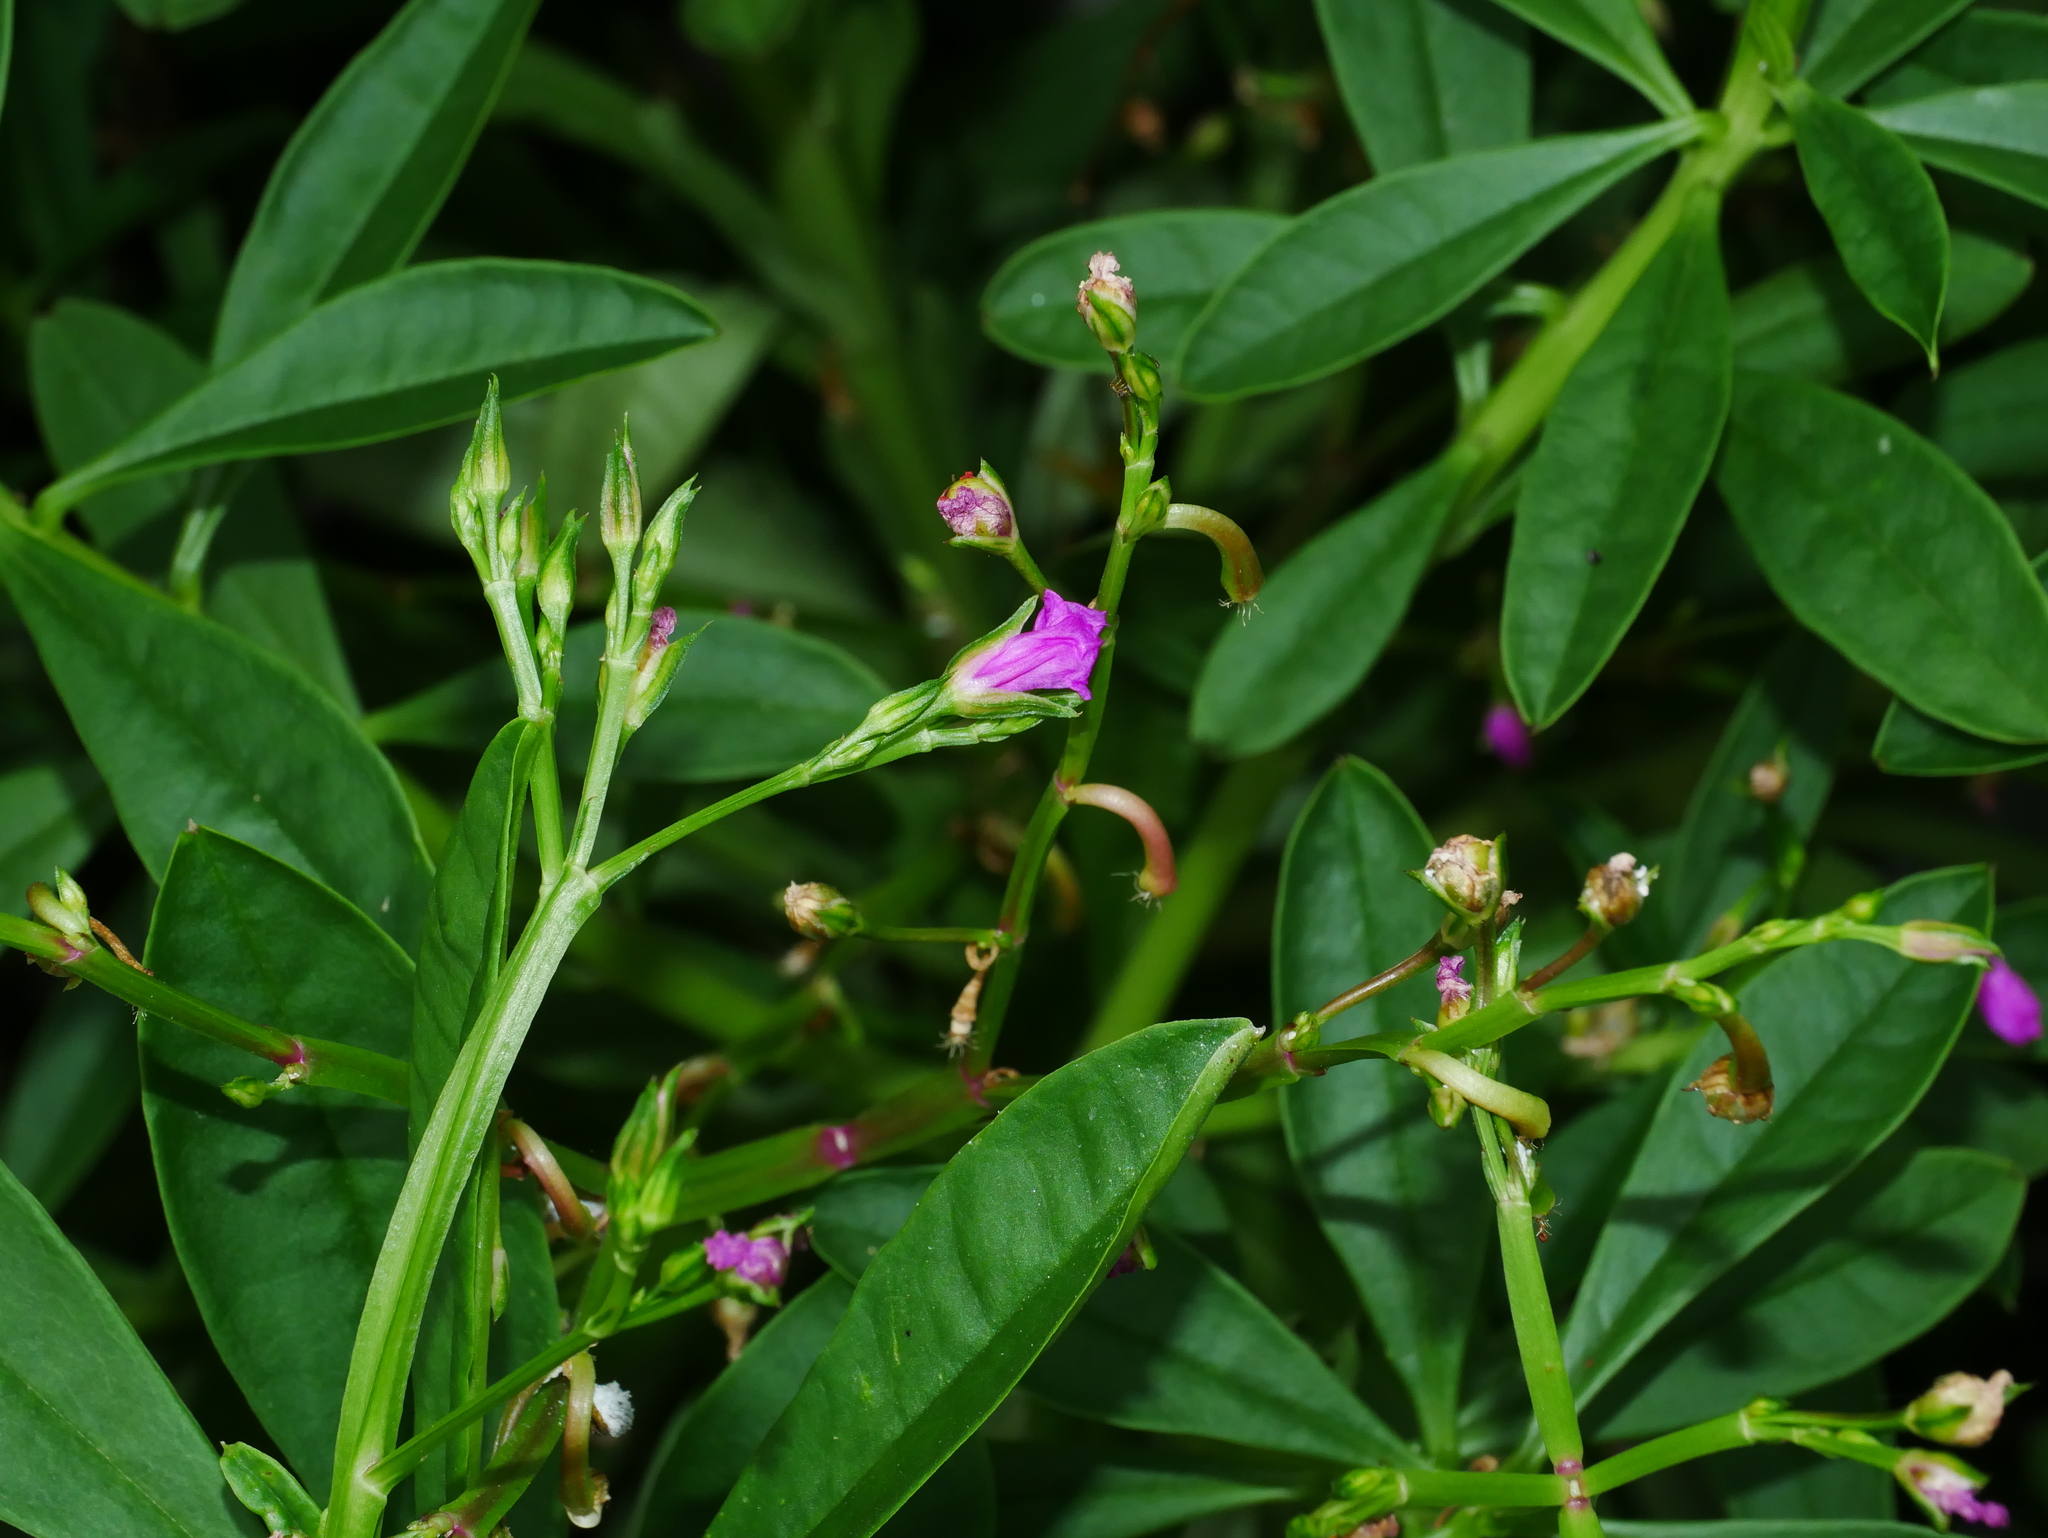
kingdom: Plantae
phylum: Tracheophyta
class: Magnoliopsida
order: Caryophyllales
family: Talinaceae
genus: Talinum
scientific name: Talinum fruticosum
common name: Verdolaga-francesa
